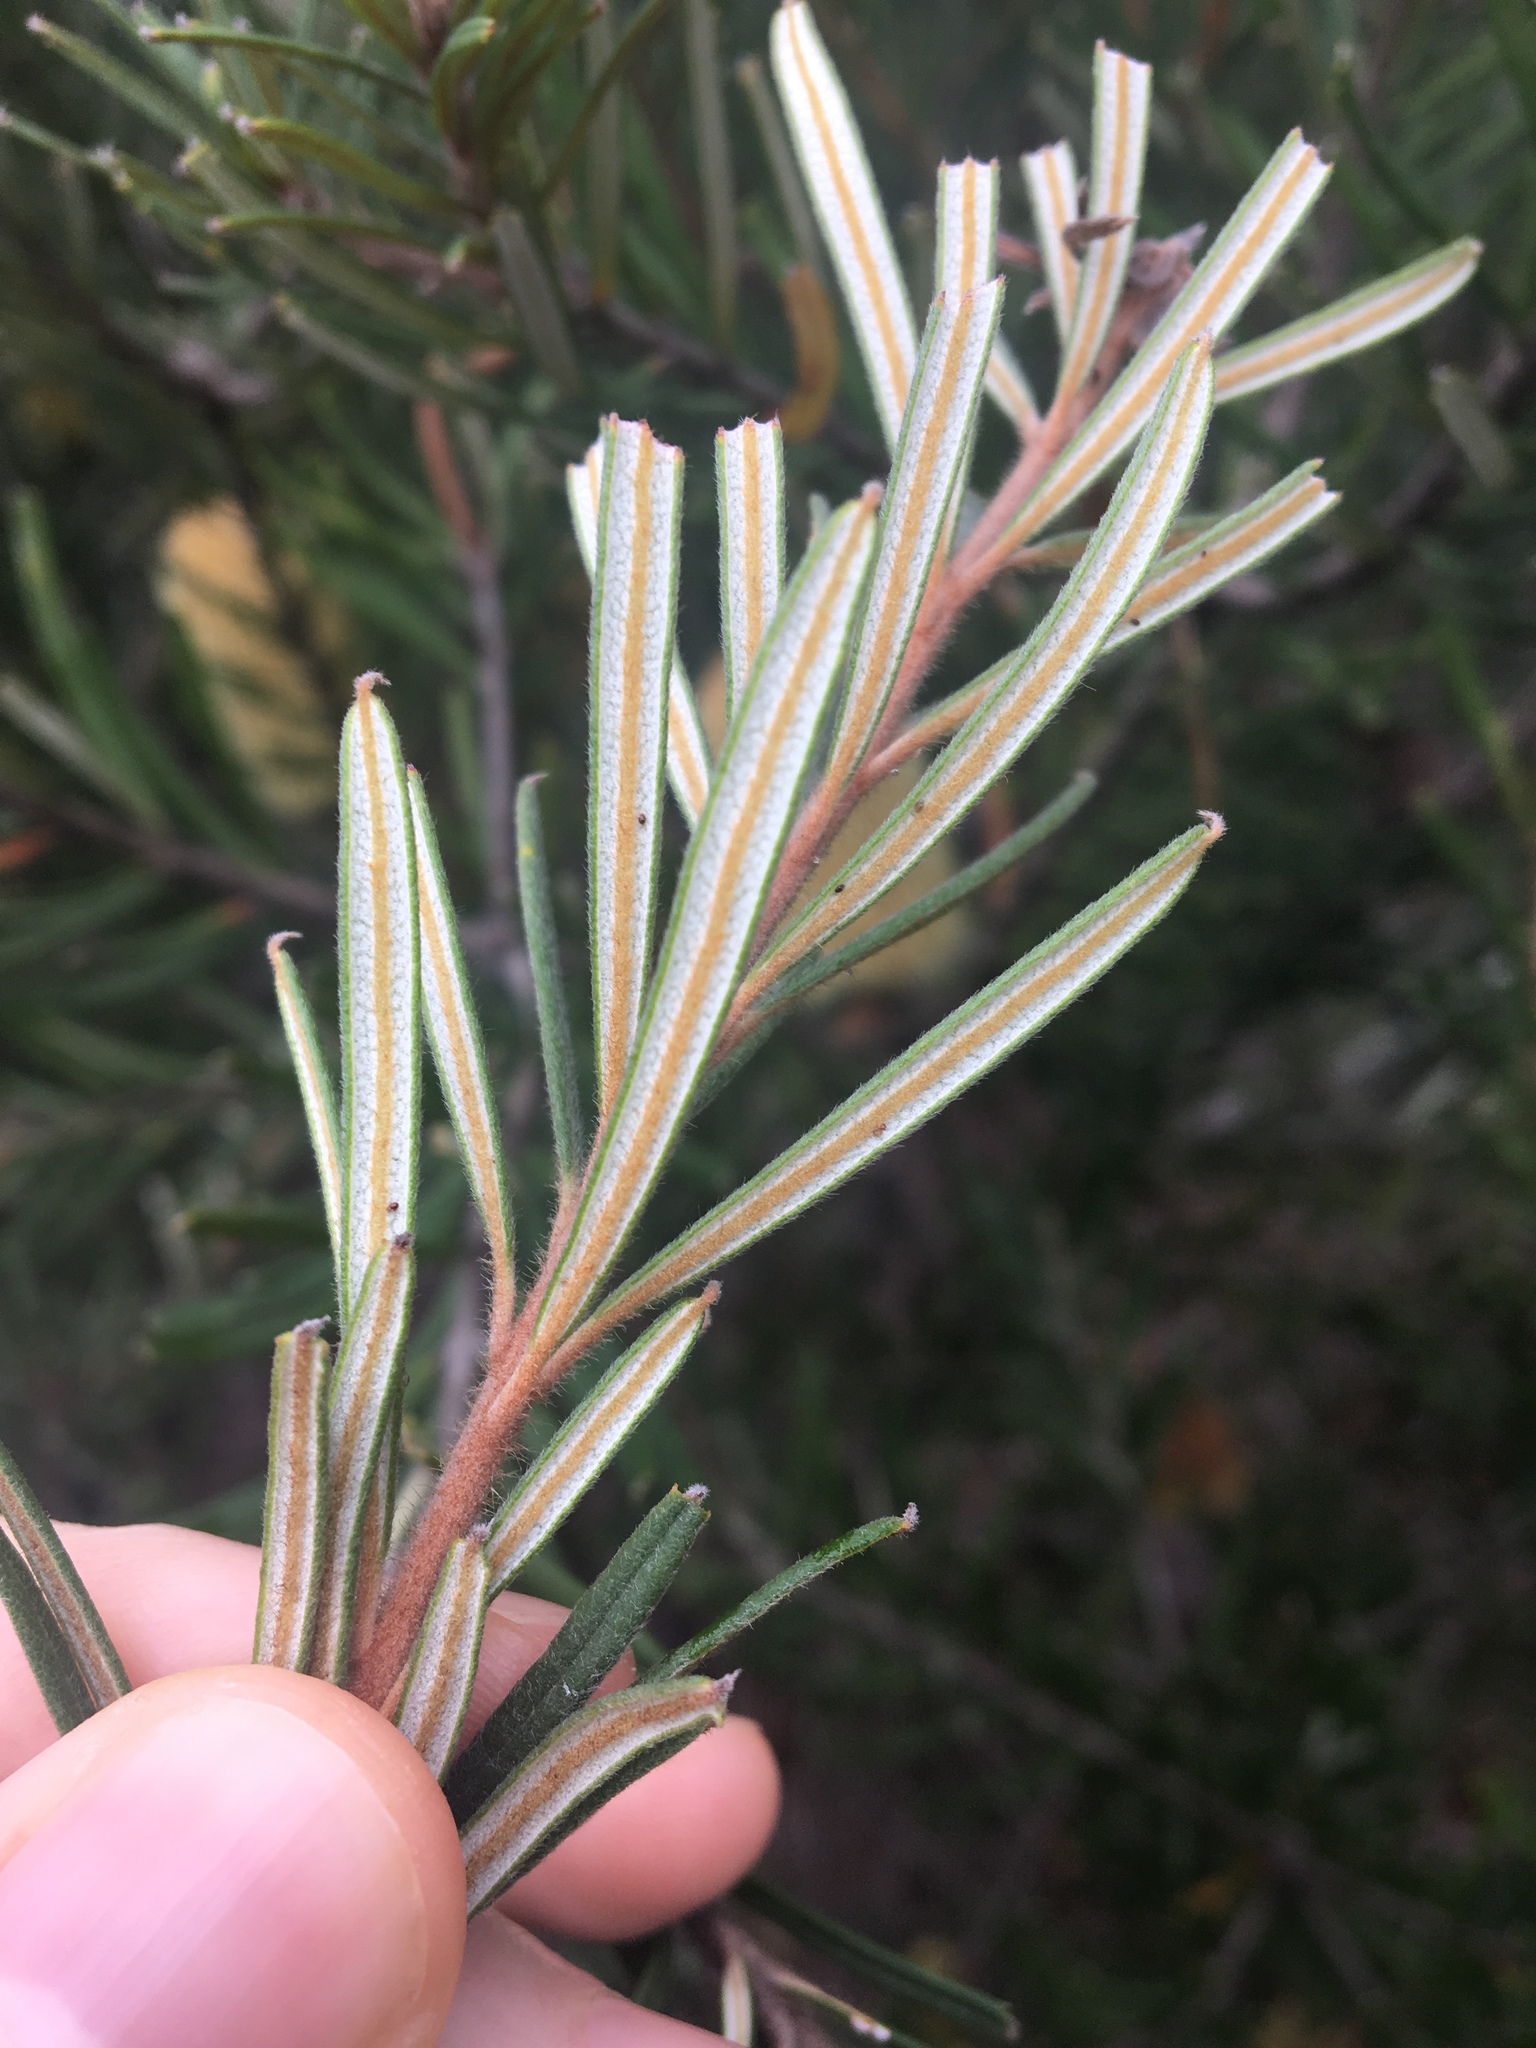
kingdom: Plantae
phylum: Tracheophyta
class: Magnoliopsida
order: Proteales
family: Proteaceae
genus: Banksia
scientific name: Banksia marginata
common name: Silver banksia
